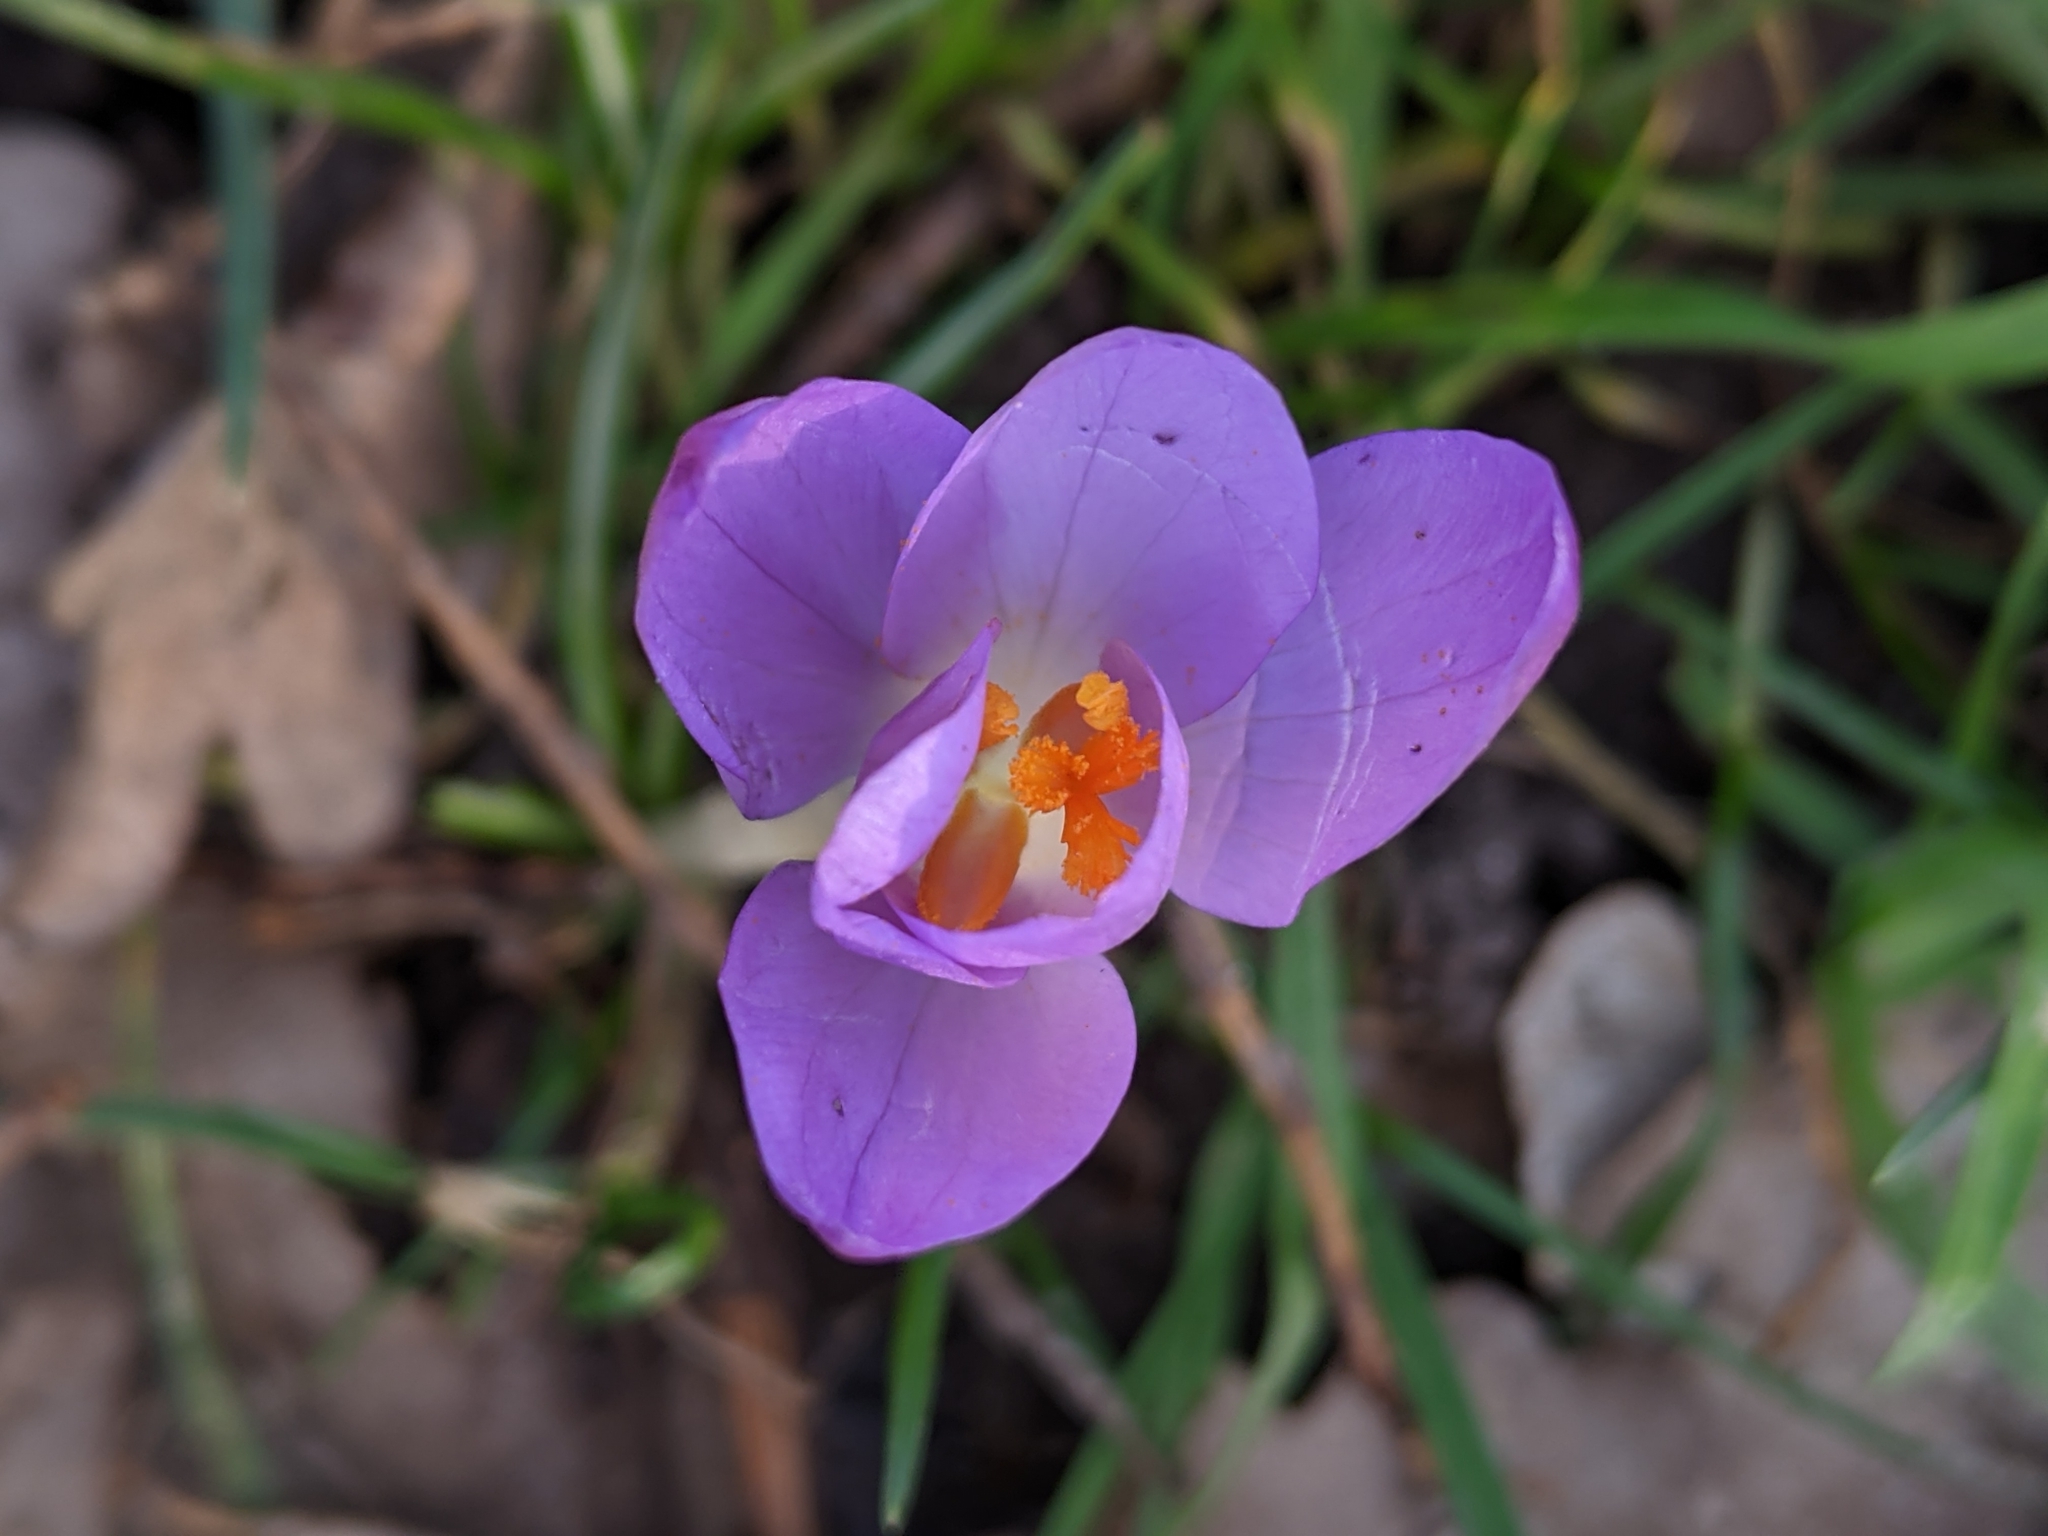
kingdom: Plantae
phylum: Tracheophyta
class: Liliopsida
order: Asparagales
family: Iridaceae
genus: Crocus
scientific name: Crocus tommasinianus
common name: Early crocus
